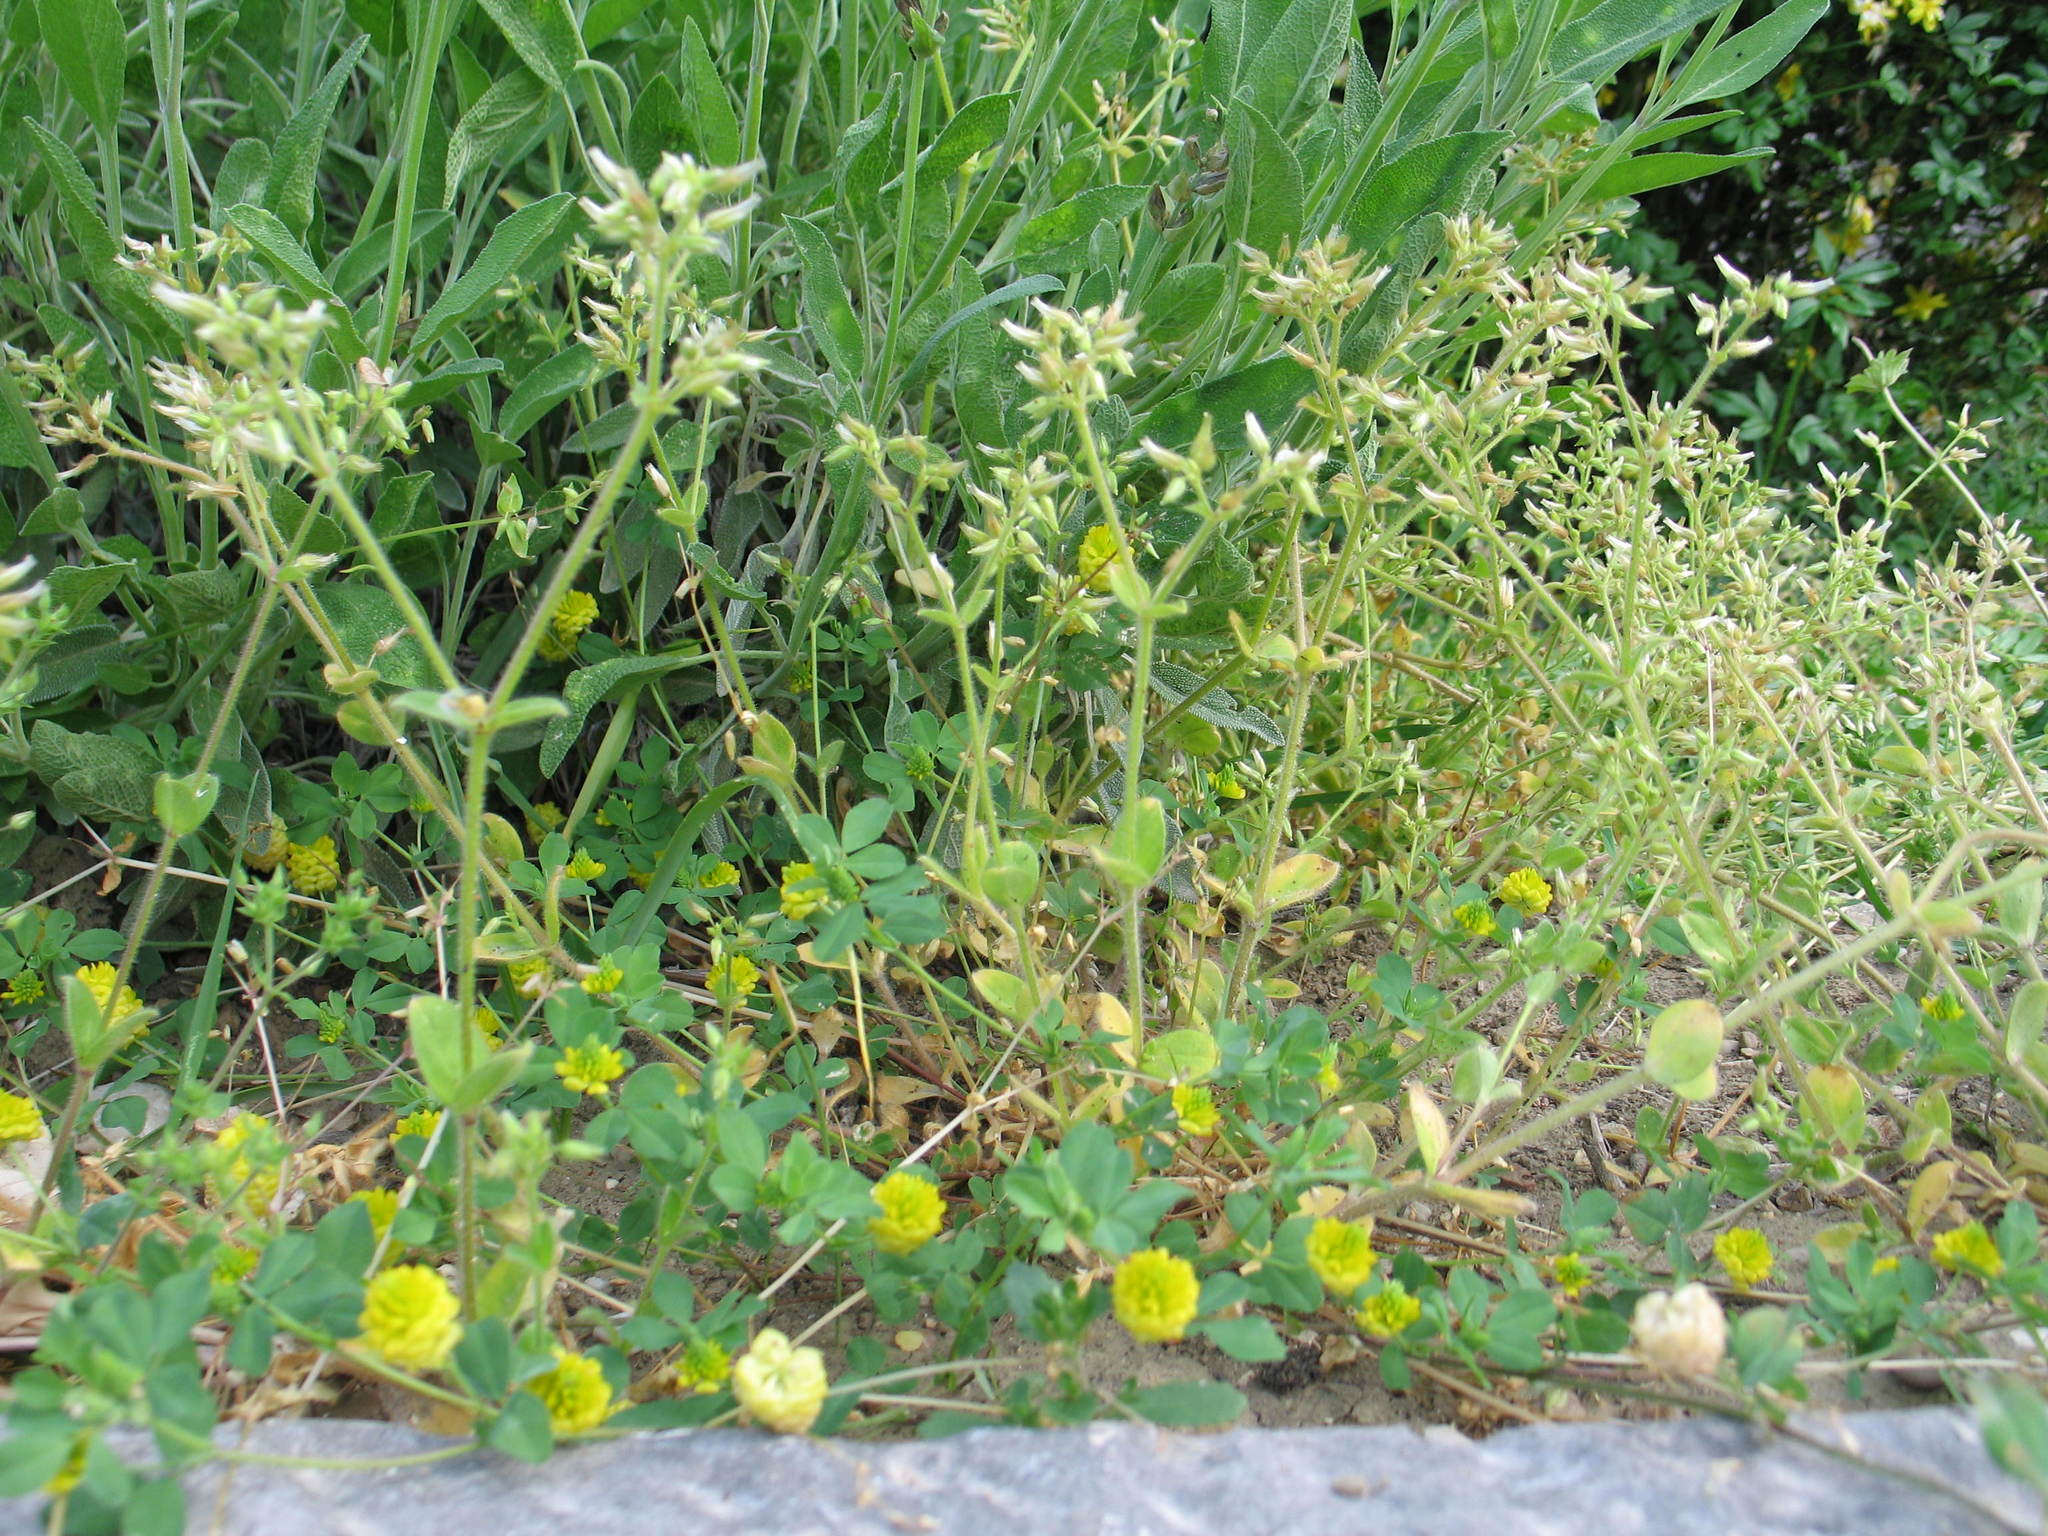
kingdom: Plantae
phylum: Tracheophyta
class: Magnoliopsida
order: Caryophyllales
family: Caryophyllaceae
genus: Cerastium
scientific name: Cerastium glomeratum
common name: Sticky chickweed
